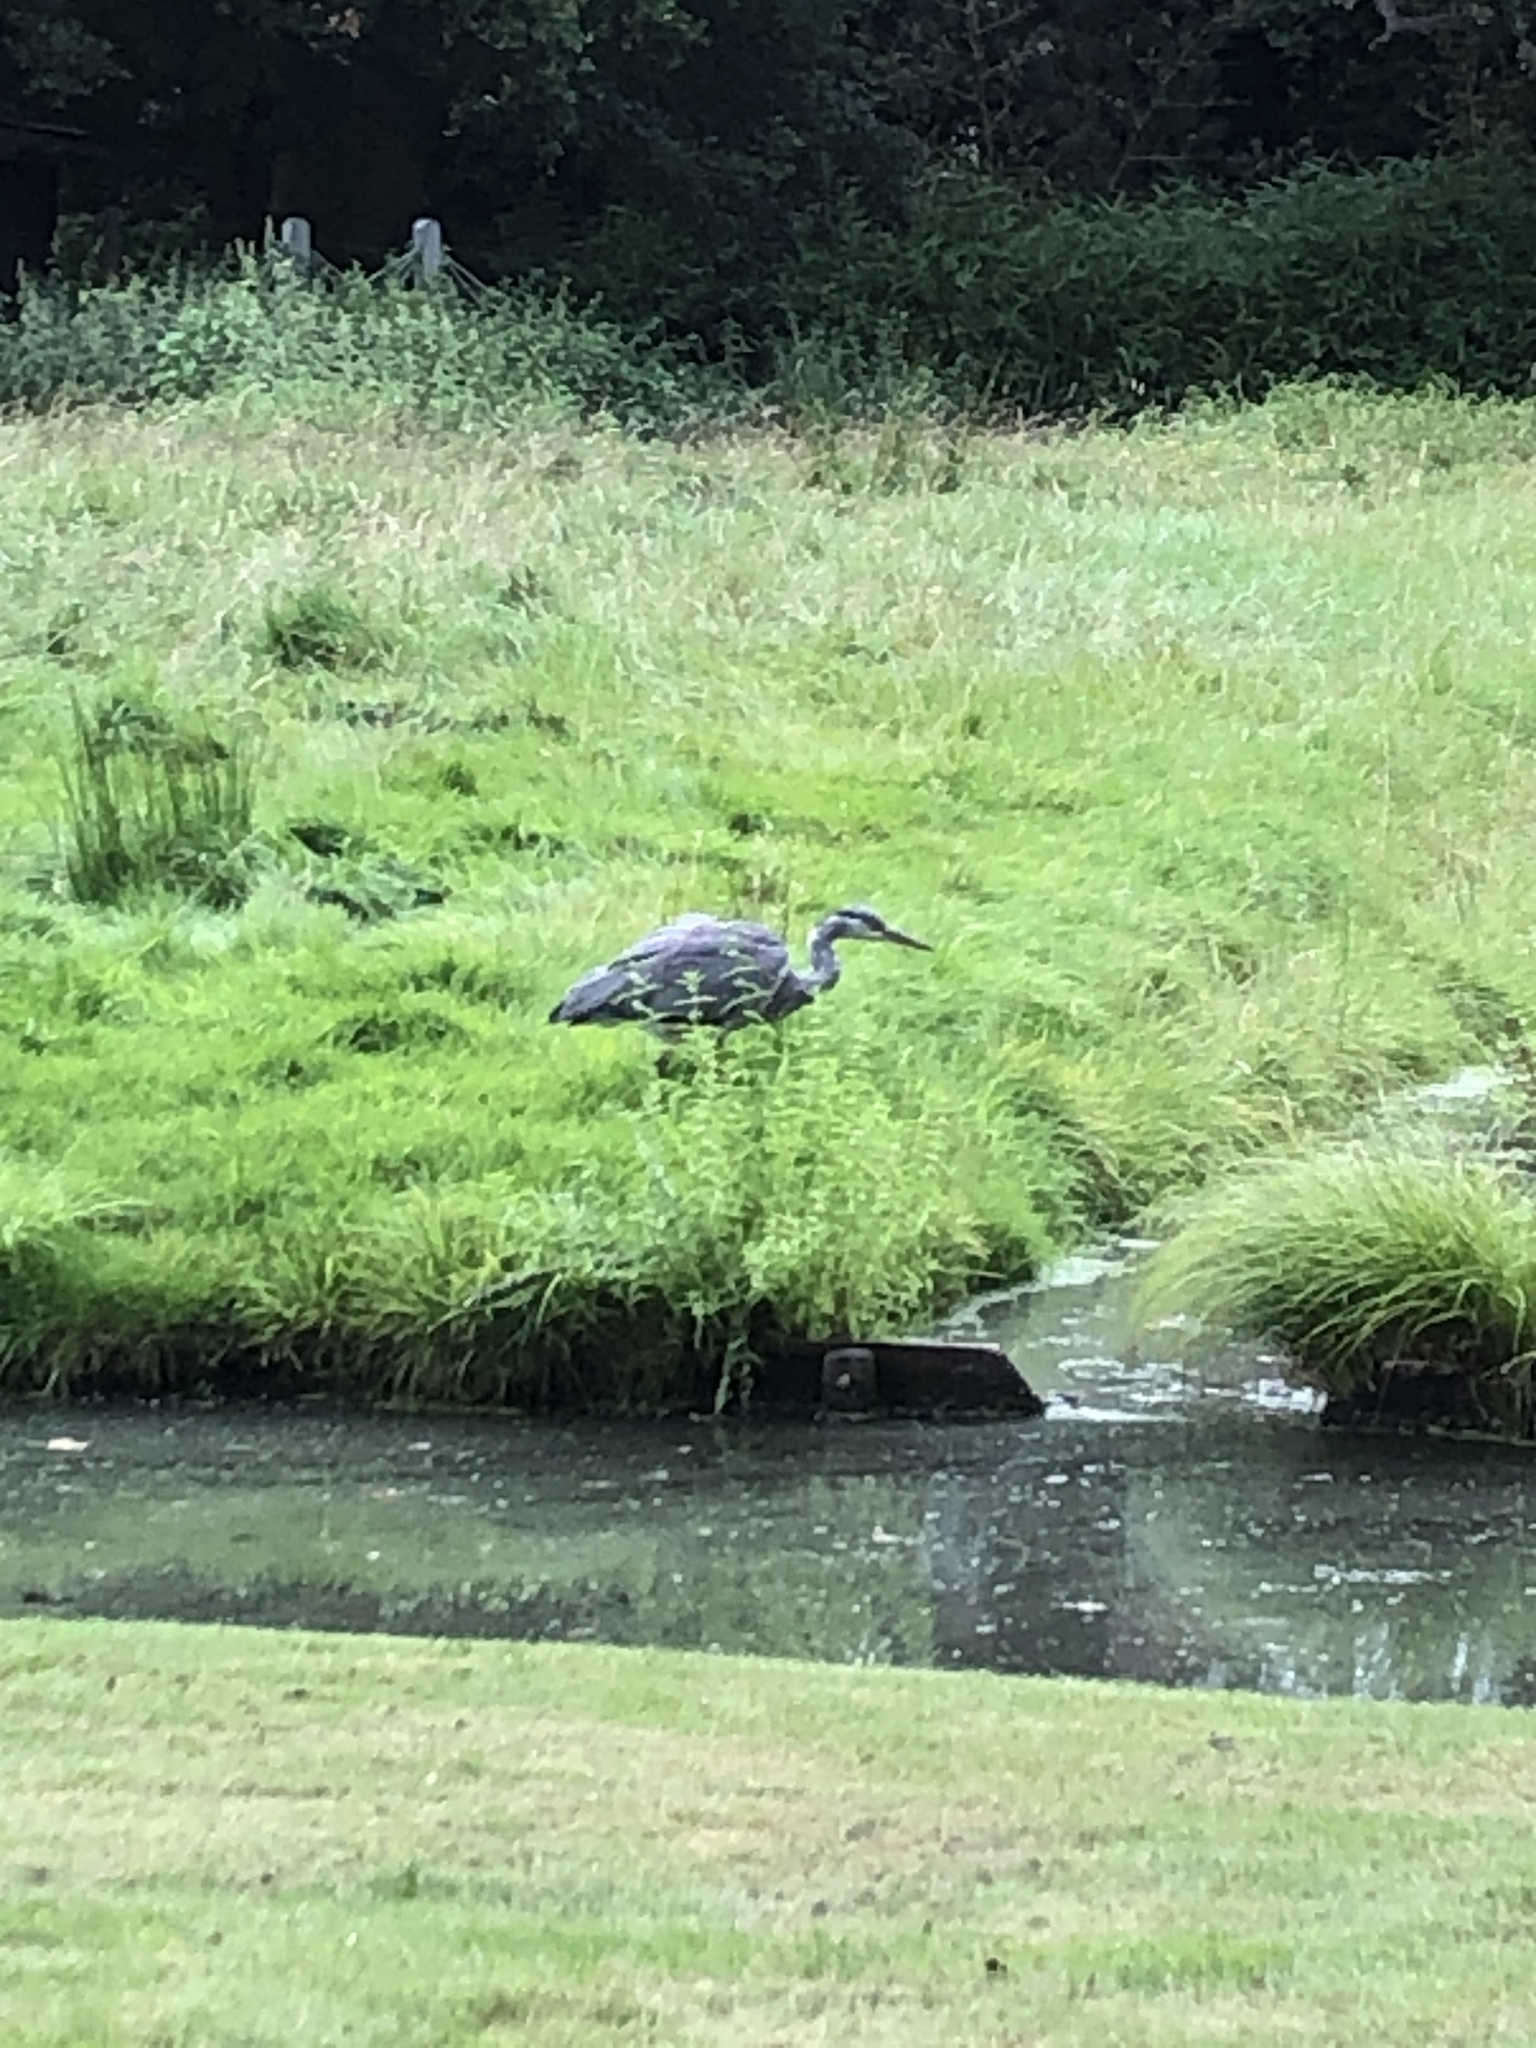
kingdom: Animalia
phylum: Chordata
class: Aves
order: Pelecaniformes
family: Ardeidae
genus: Ardea
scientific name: Ardea cinerea
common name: Grey heron
